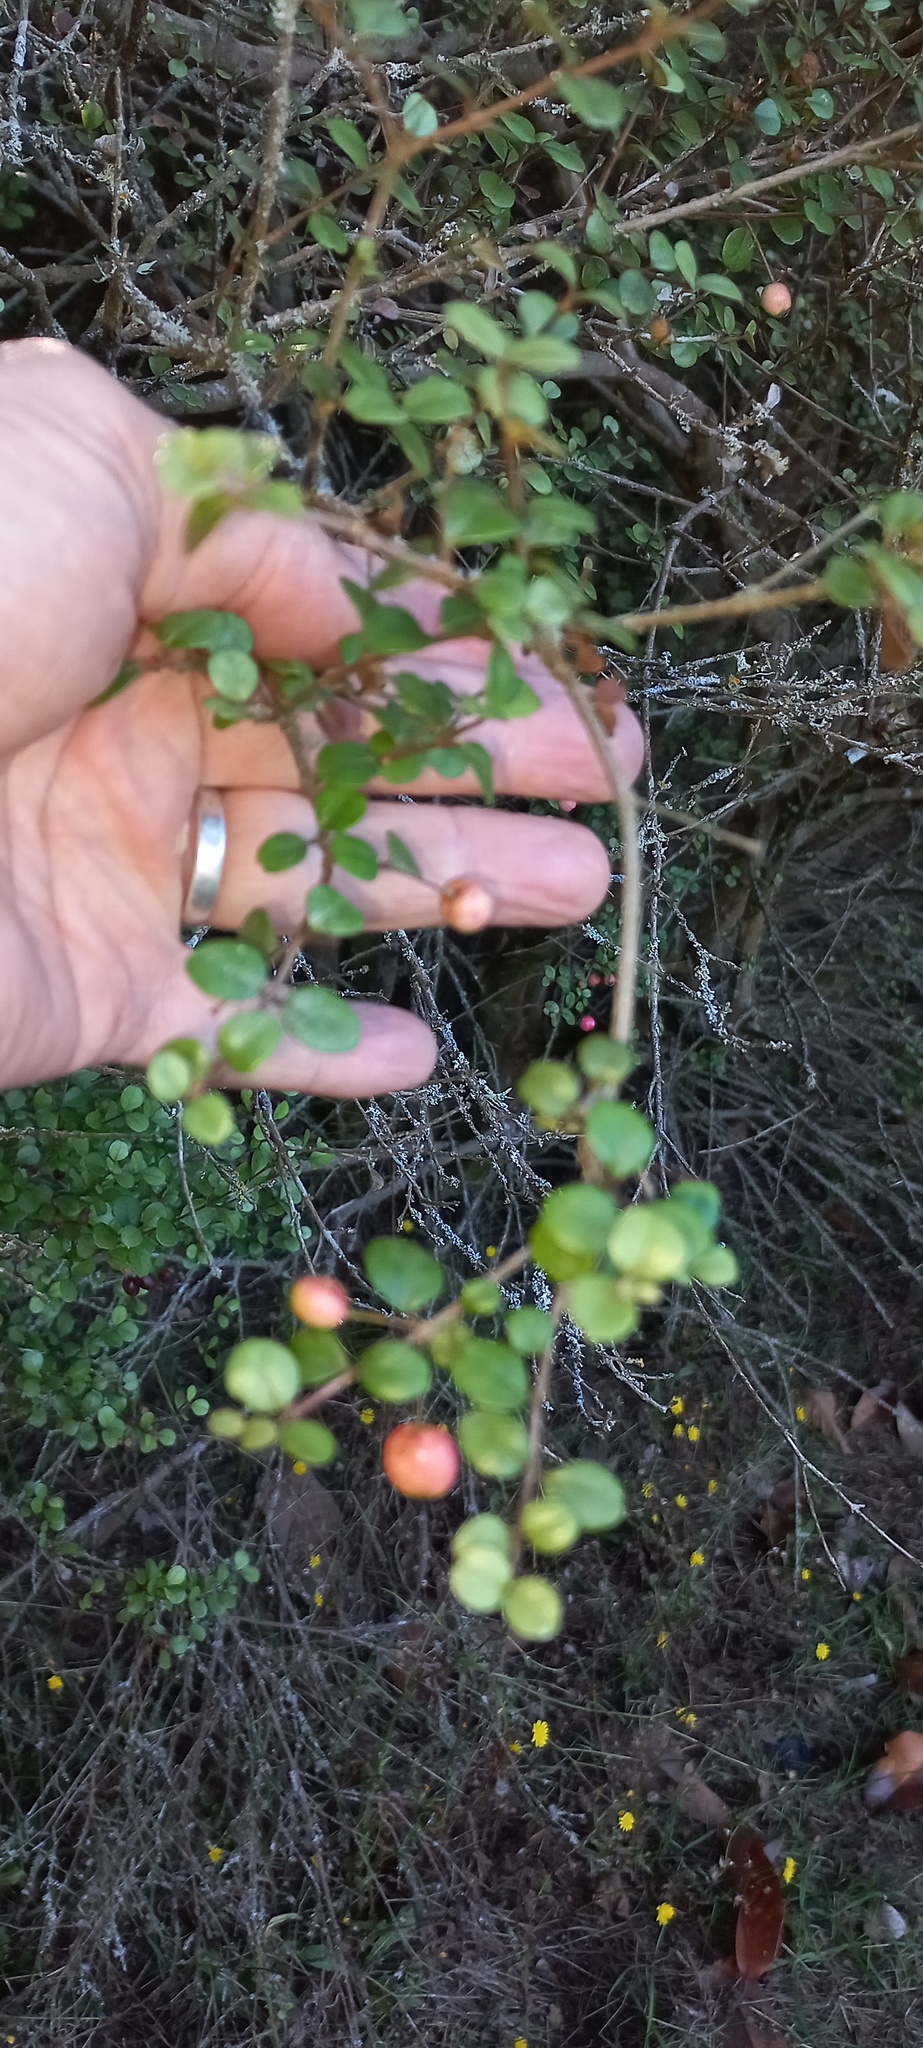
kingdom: Plantae
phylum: Tracheophyta
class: Magnoliopsida
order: Myrtales
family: Myrtaceae
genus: Lophomyrtus
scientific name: Lophomyrtus obcordata
